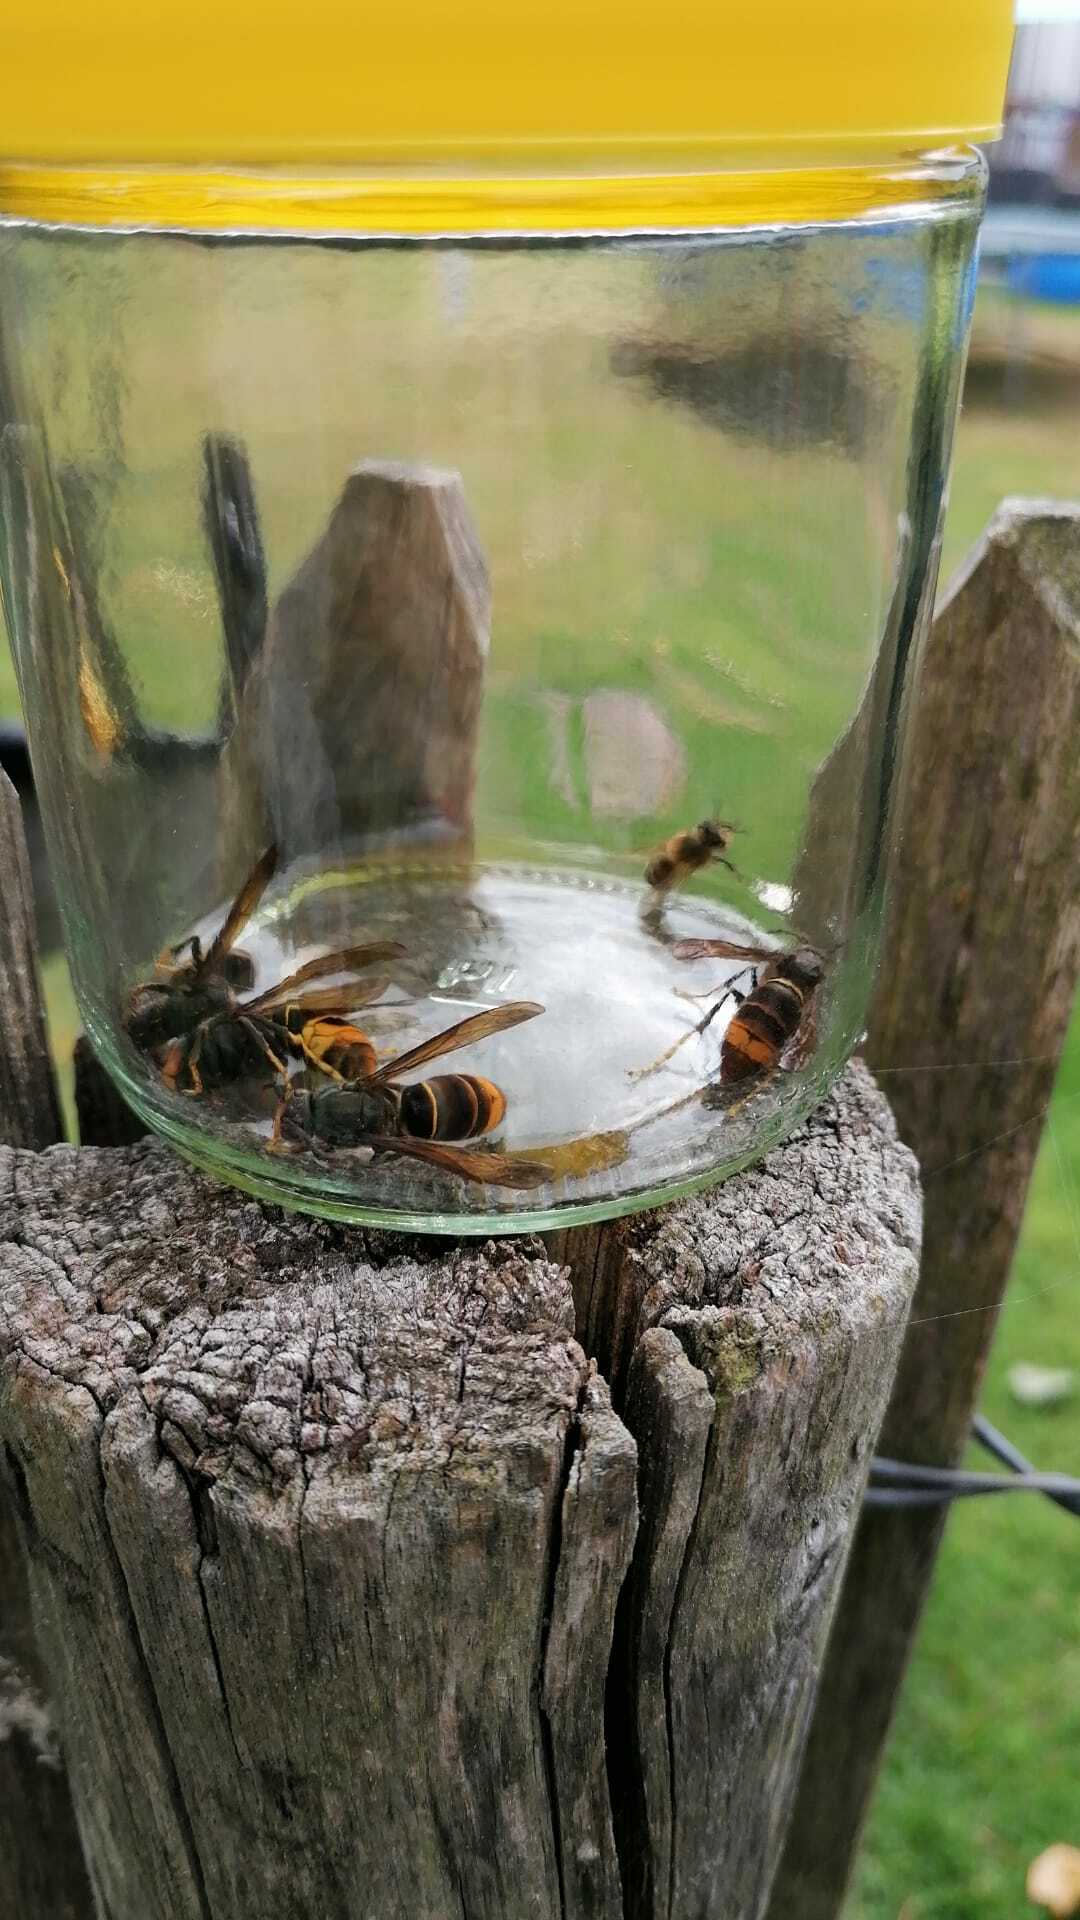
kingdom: Animalia
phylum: Arthropoda
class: Insecta
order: Hymenoptera
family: Vespidae
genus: Vespa
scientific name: Vespa velutina
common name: Asian hornet
